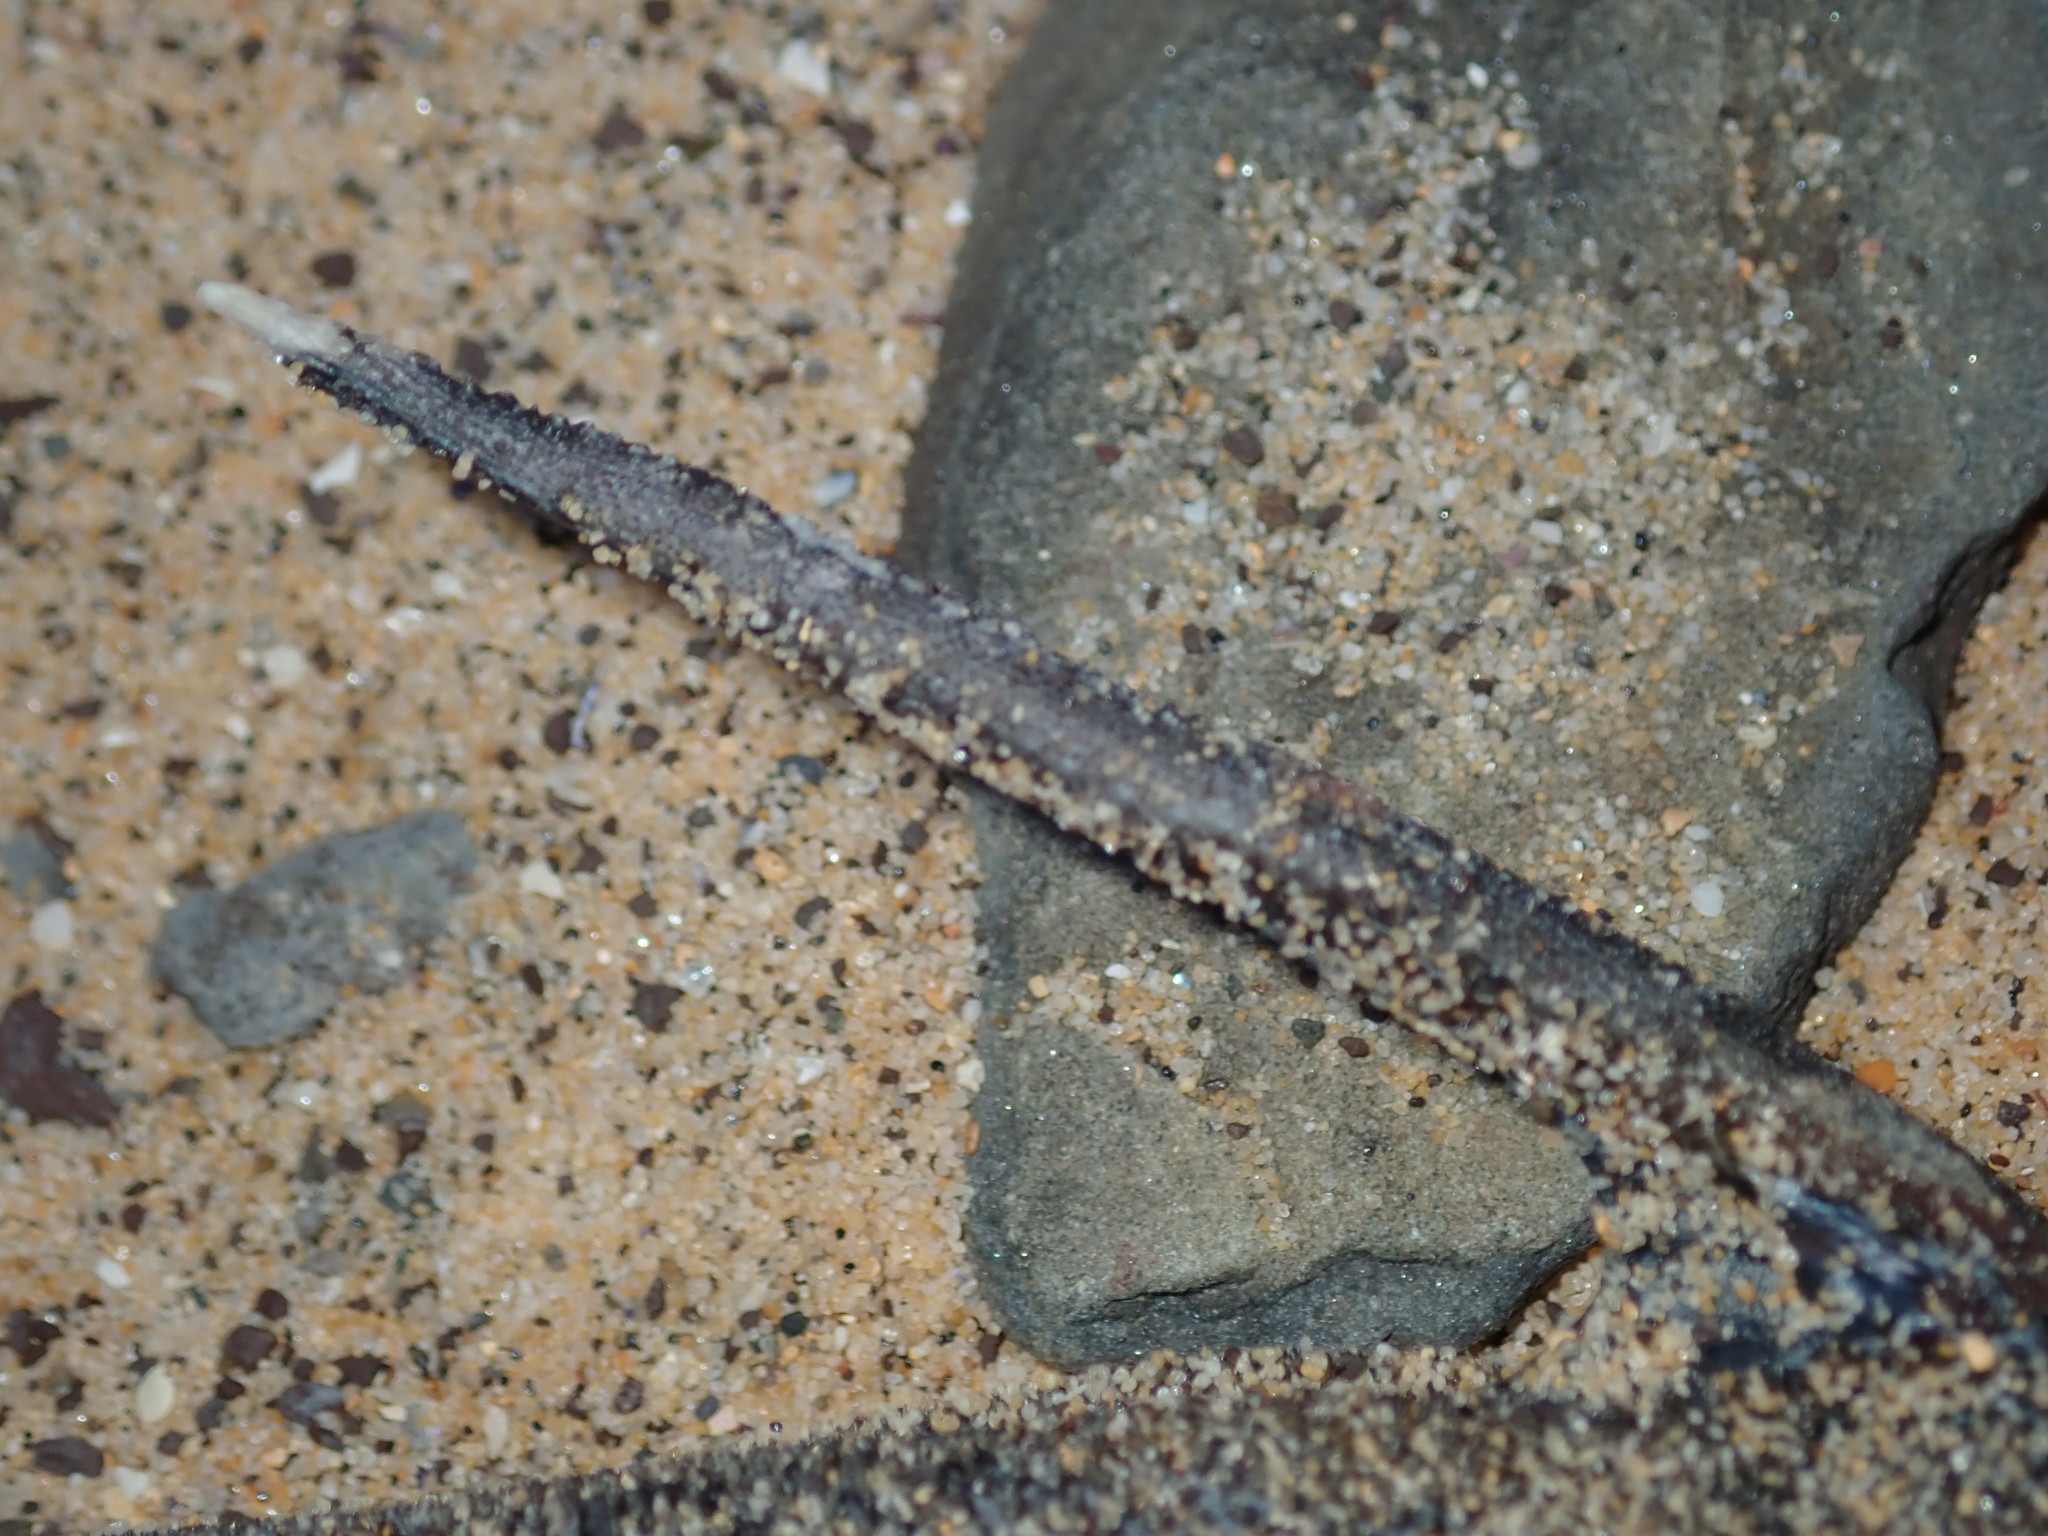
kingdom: Animalia
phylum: Chordata
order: Tetraodontiformes
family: Monacanthidae
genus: Meuschenia
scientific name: Meuschenia trachylepis
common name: Yellowfin leatherjacket
